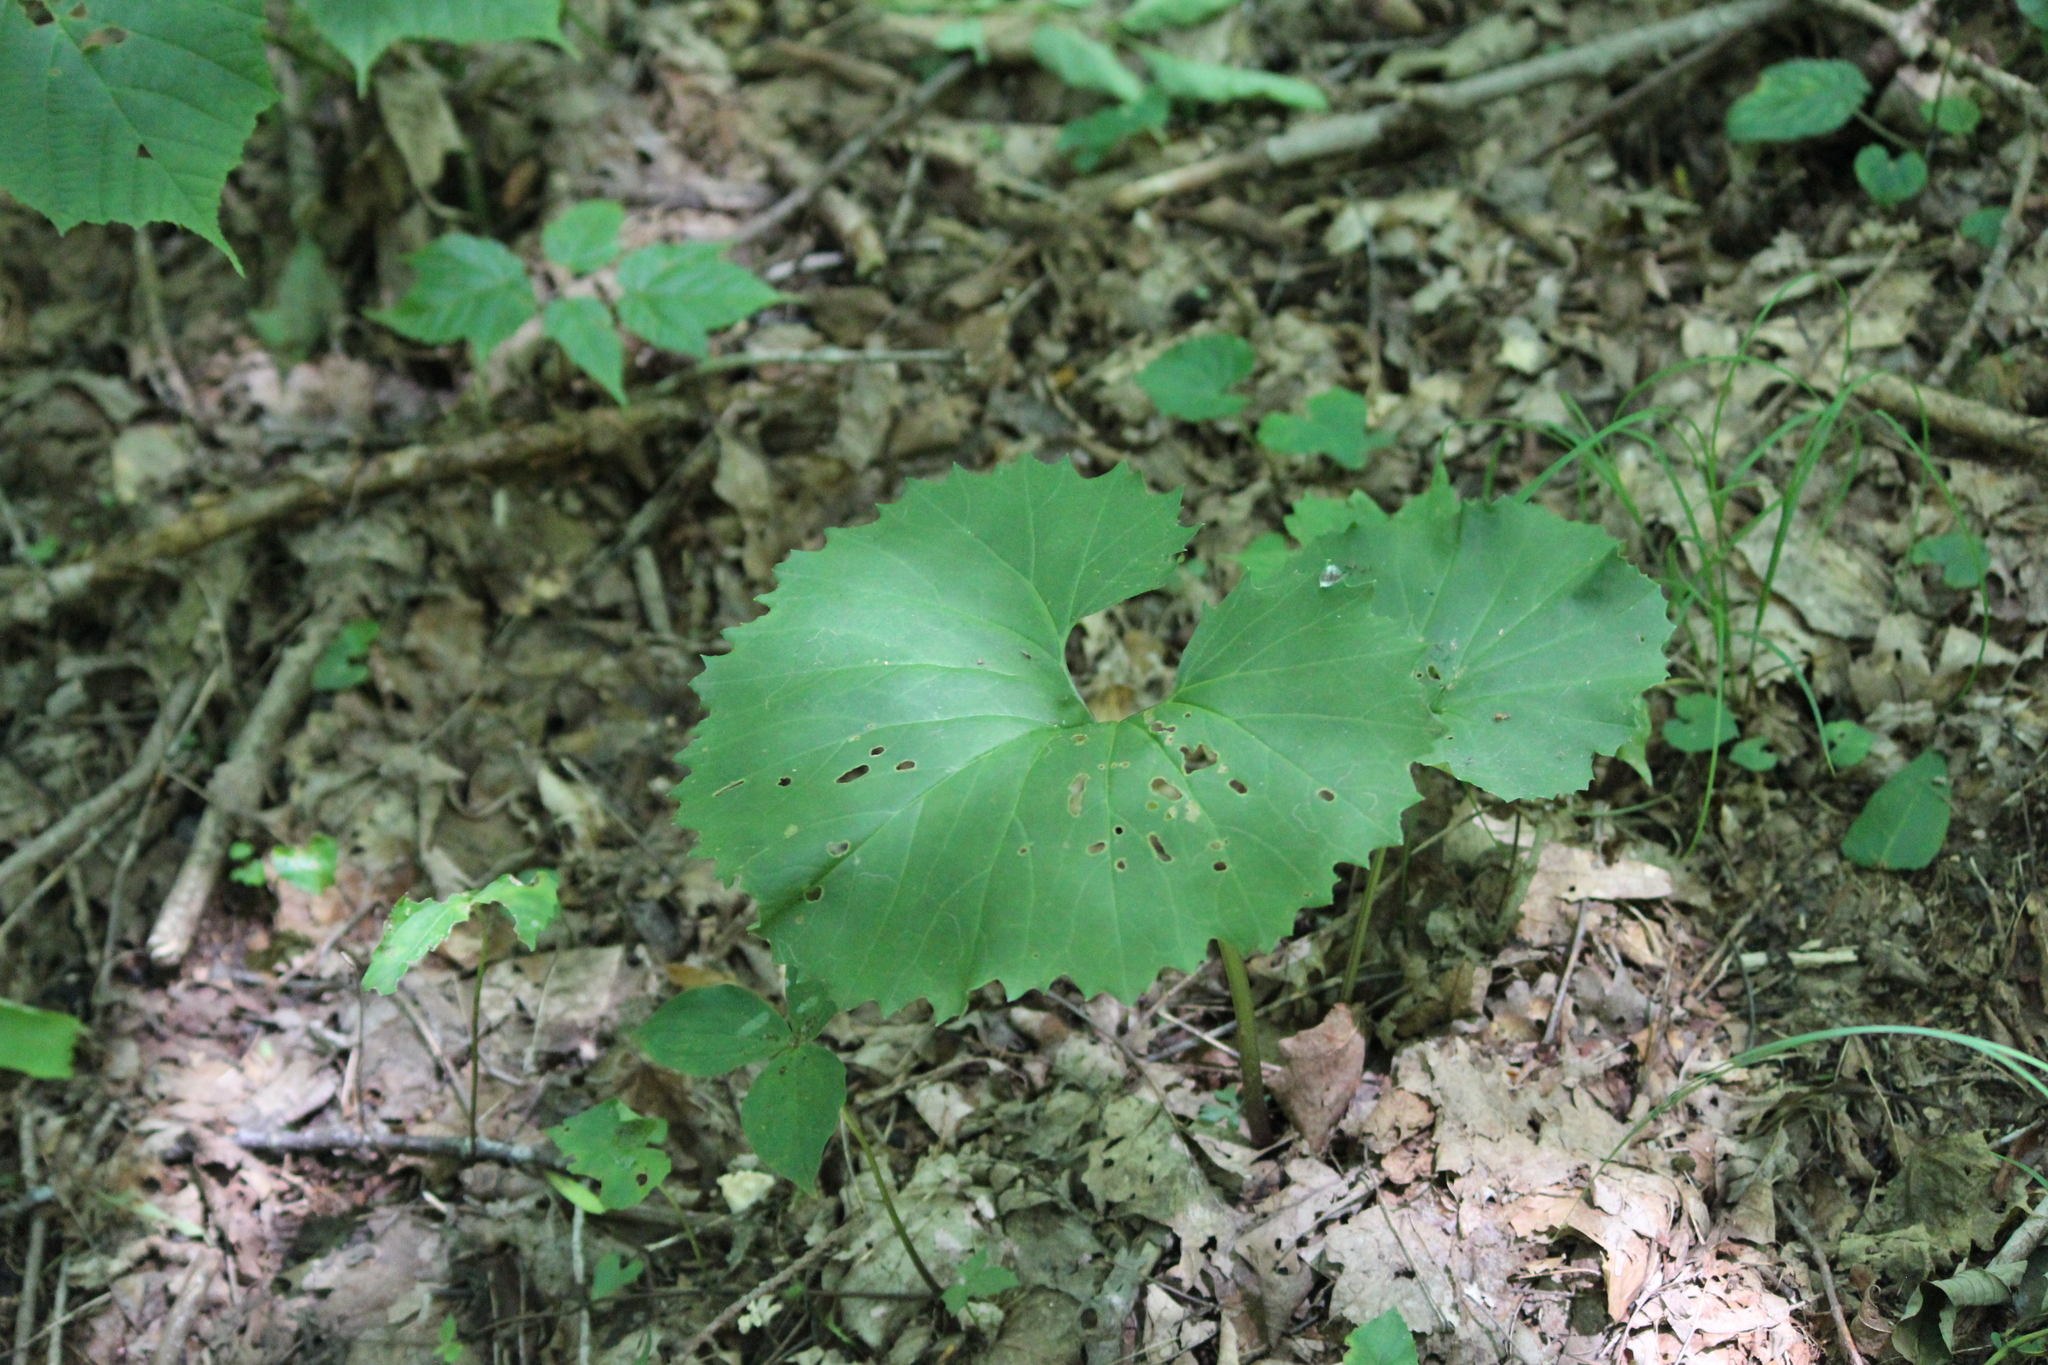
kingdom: Plantae
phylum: Tracheophyta
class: Magnoliopsida
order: Asterales
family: Asteraceae
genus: Arnoglossum
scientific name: Arnoglossum reniforme
